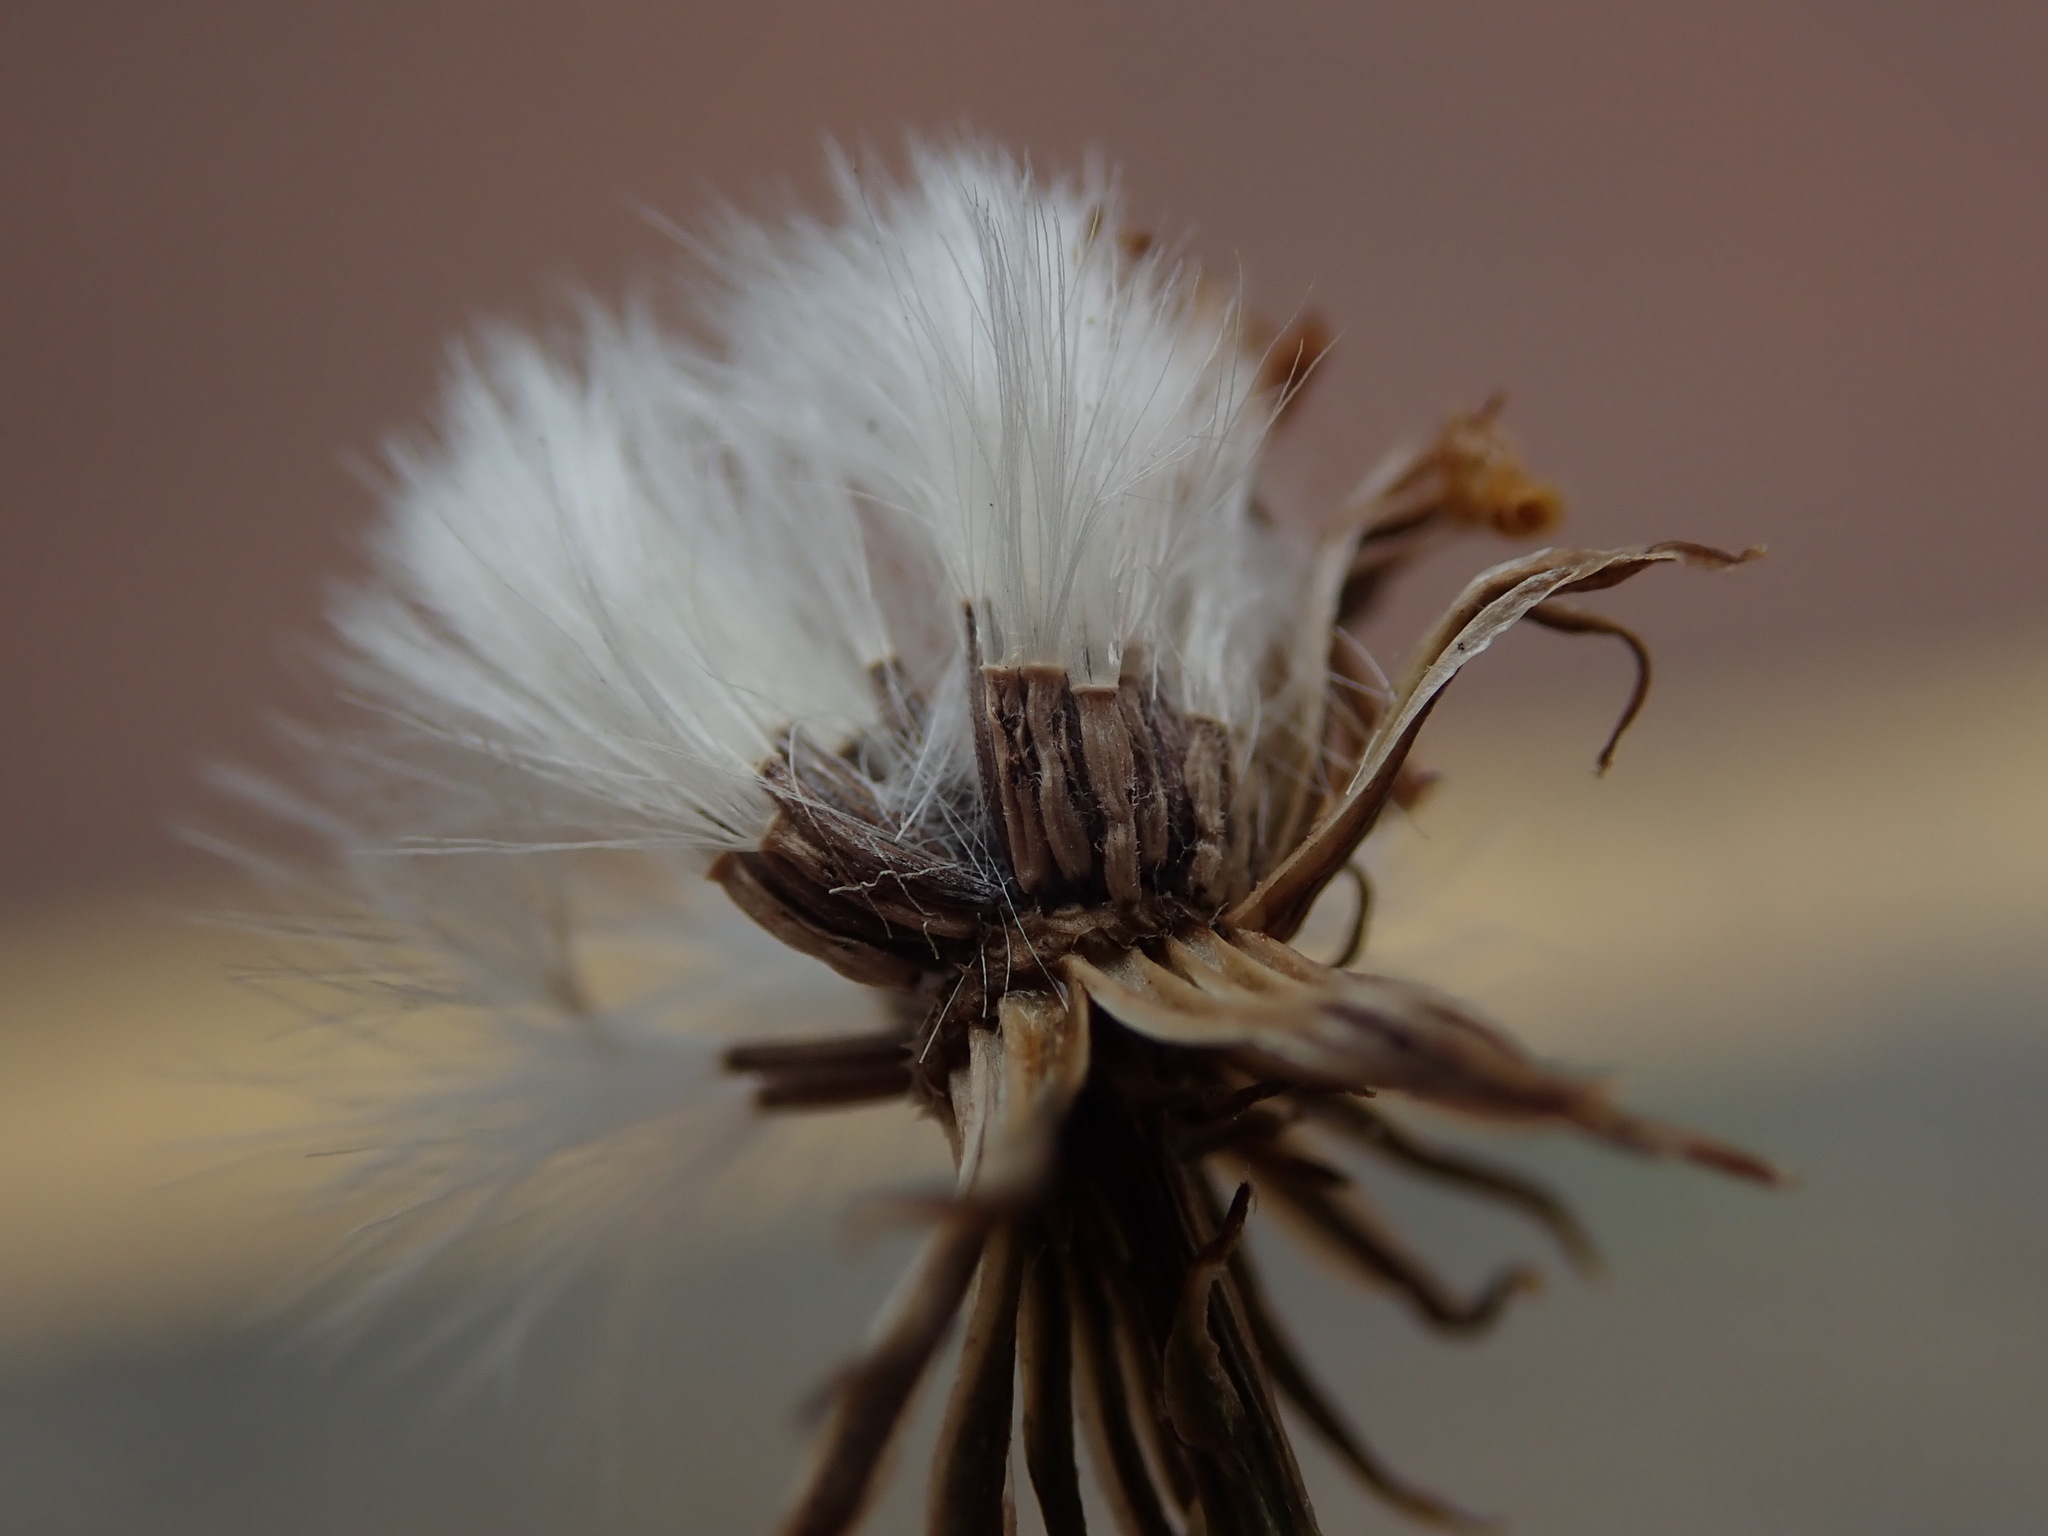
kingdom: Plantae
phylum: Tracheophyta
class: Magnoliopsida
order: Asterales
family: Asteraceae
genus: Senecio
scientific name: Senecio squalidus
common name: Oxford ragwort
